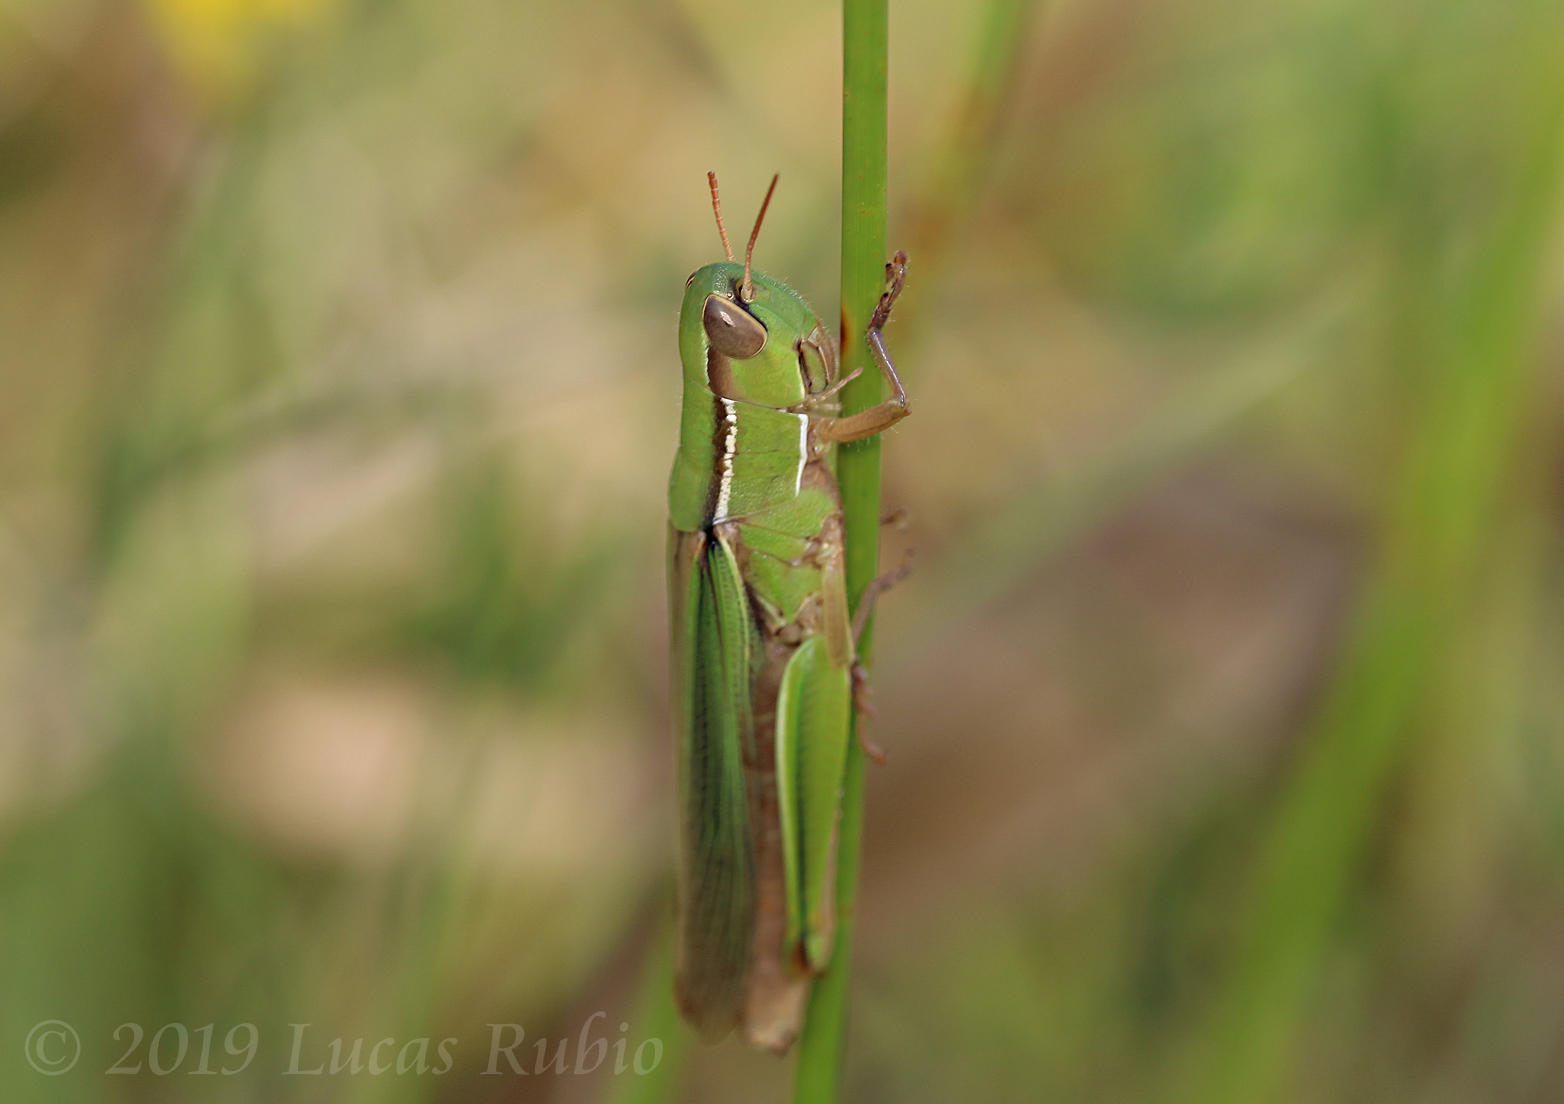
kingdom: Animalia
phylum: Arthropoda
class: Insecta
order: Orthoptera
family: Acrididae
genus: Aleuas
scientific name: Aleuas lineatus
